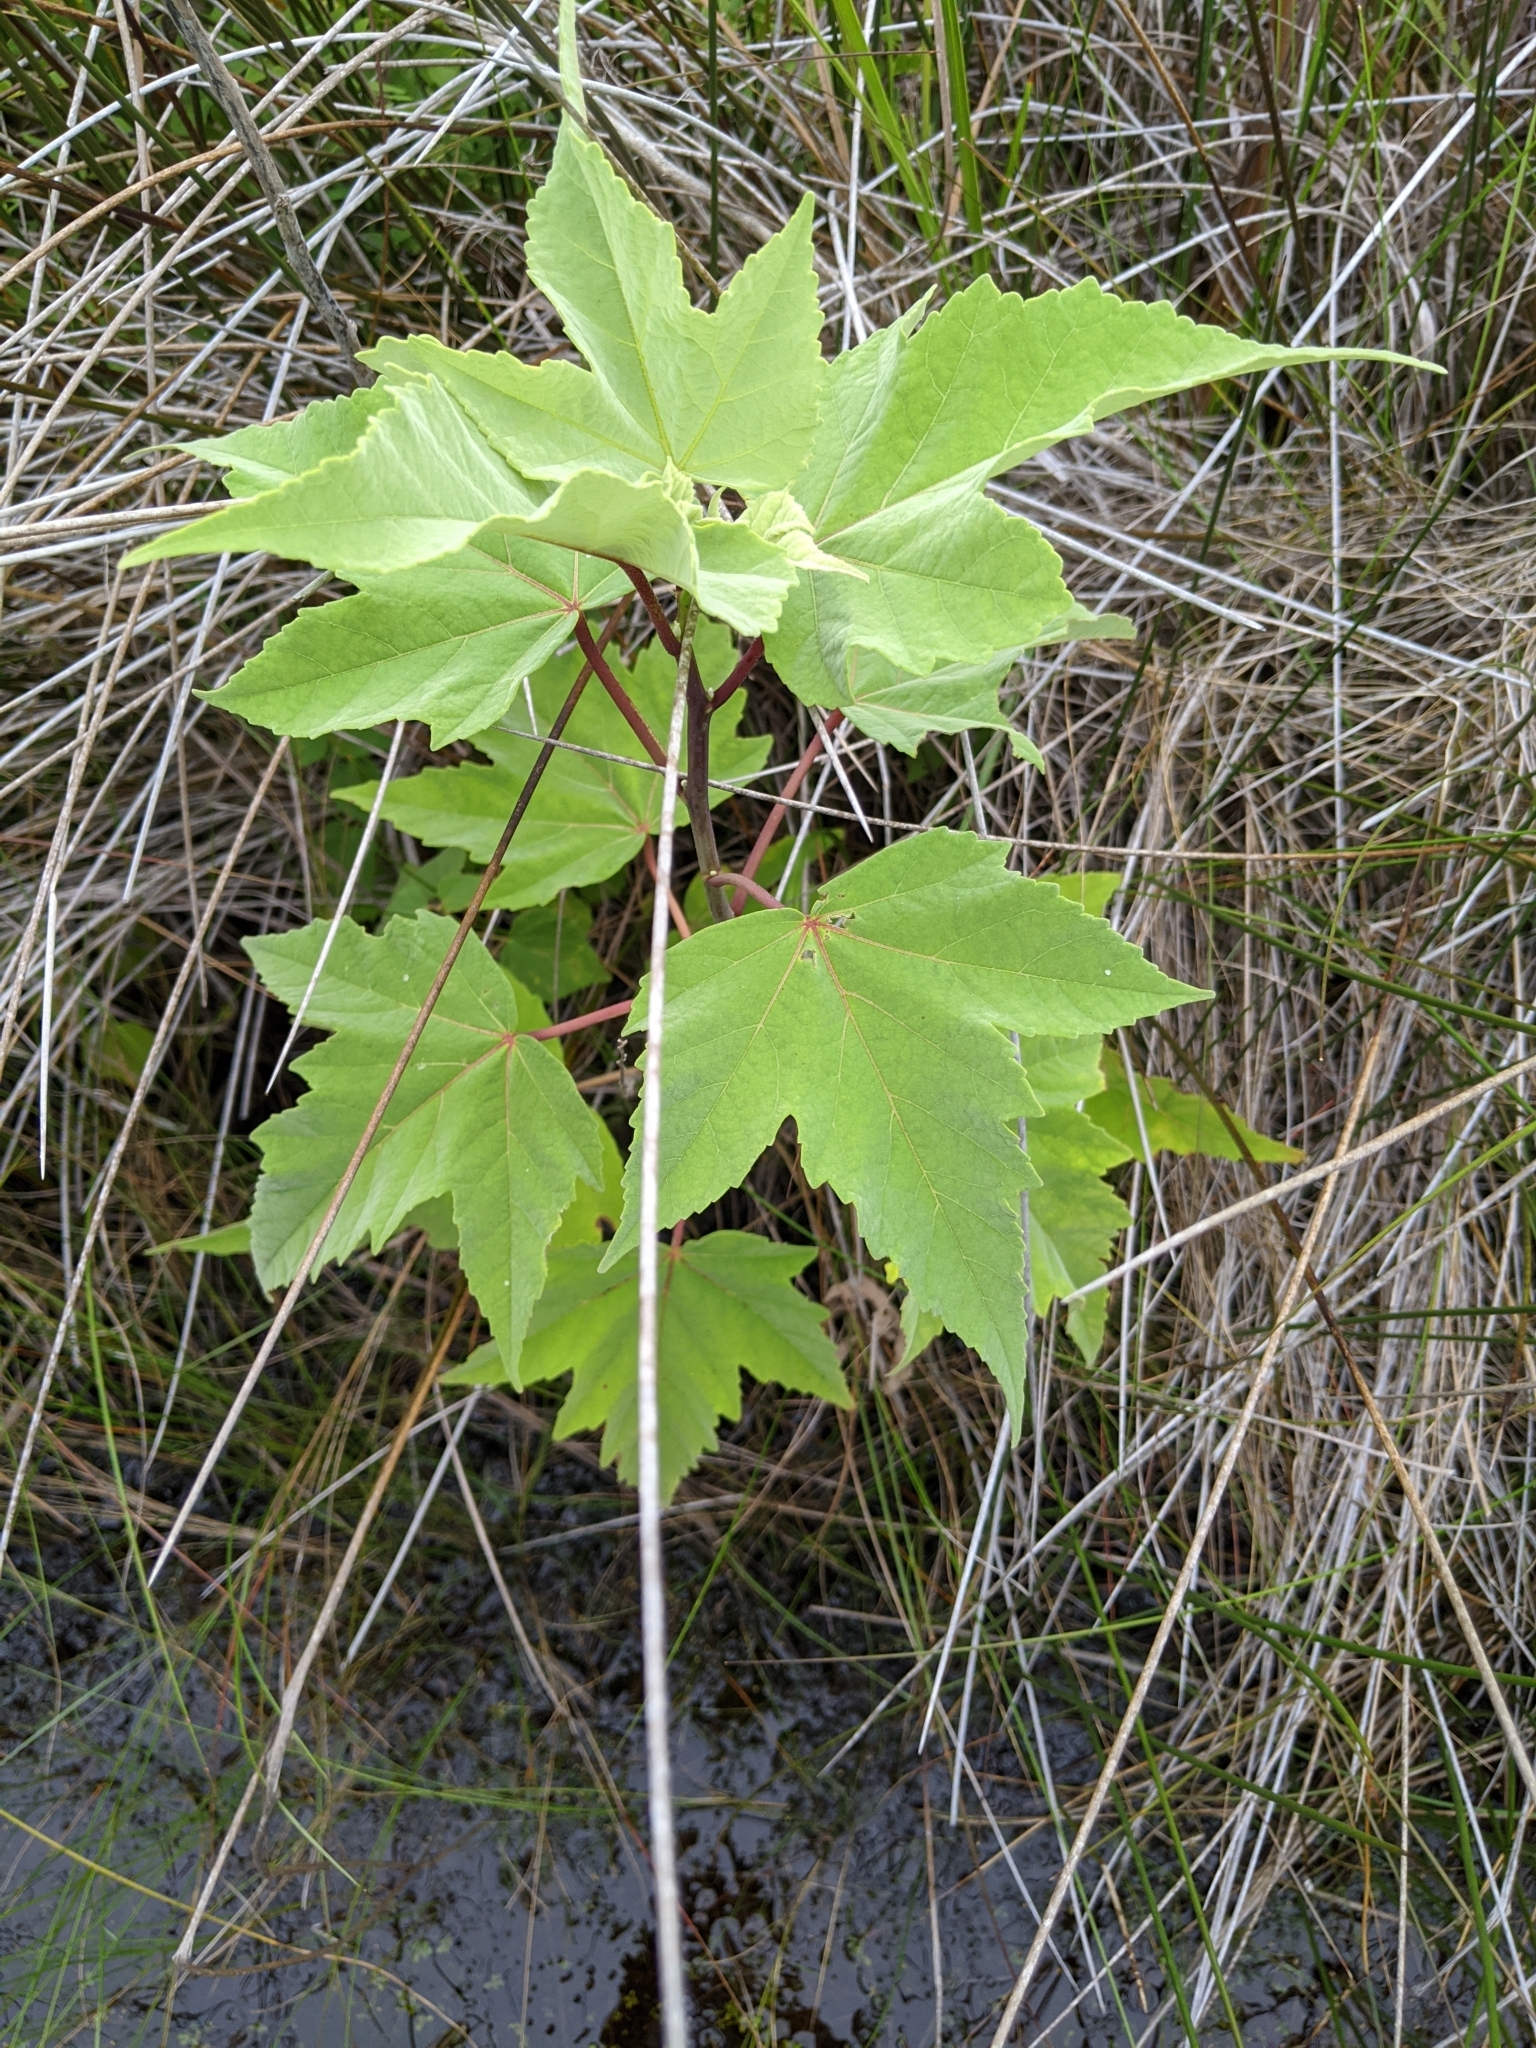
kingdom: Plantae
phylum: Tracheophyta
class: Magnoliopsida
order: Malvales
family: Malvaceae
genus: Hibiscus
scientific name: Hibiscus grandiflorus
